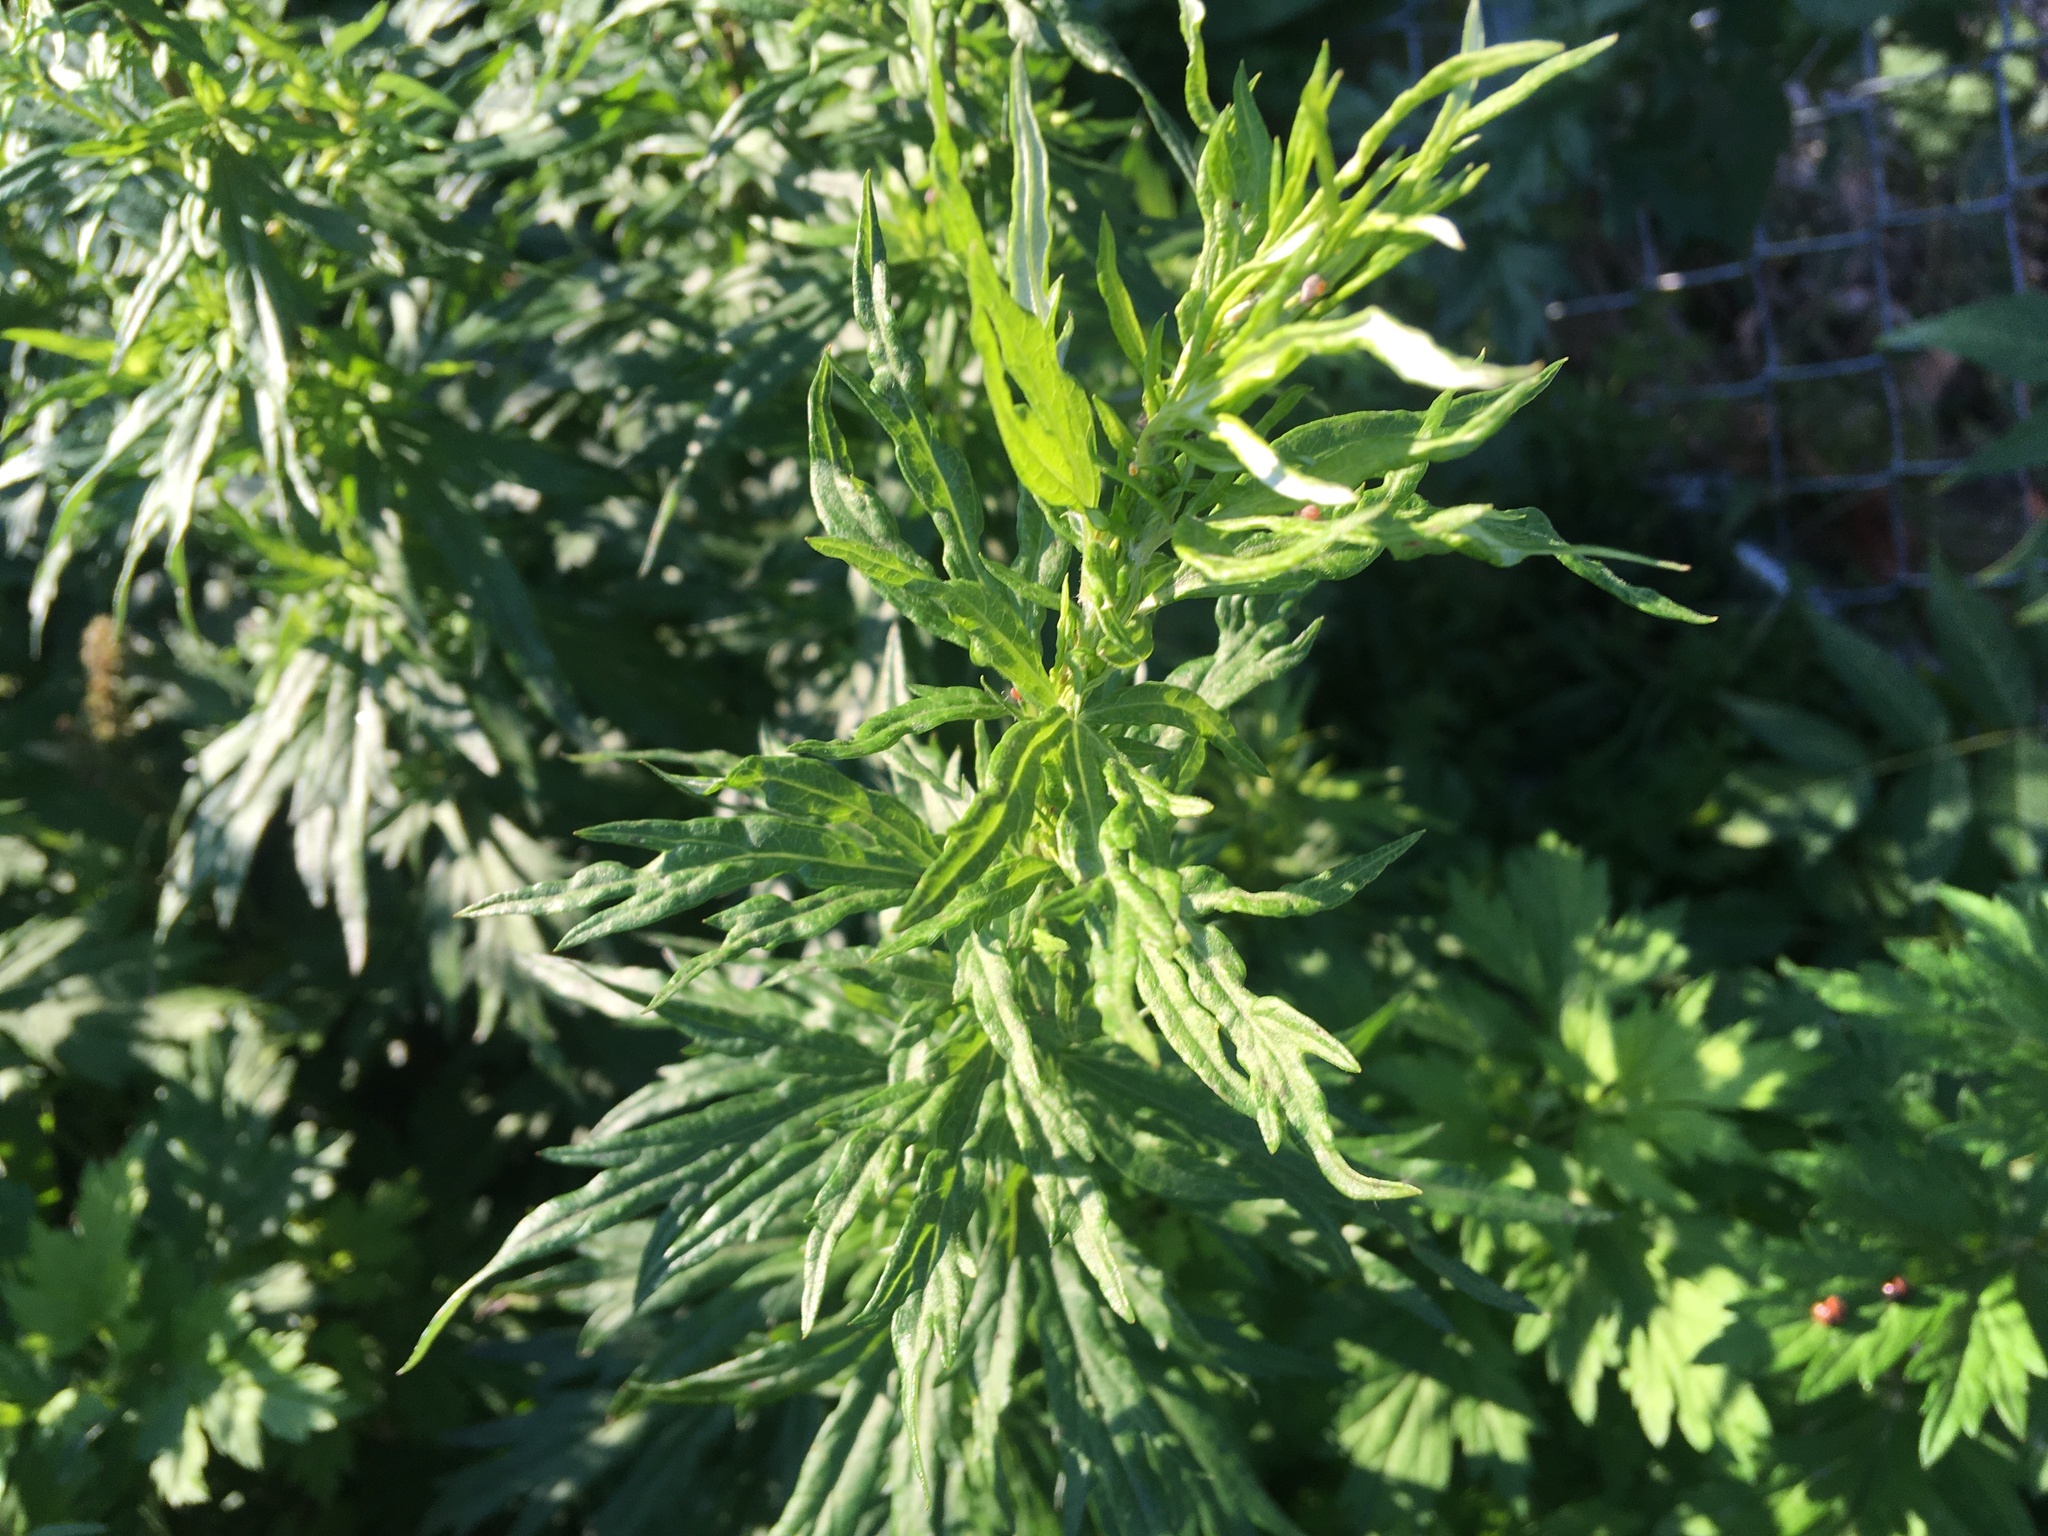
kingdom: Plantae
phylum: Tracheophyta
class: Magnoliopsida
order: Asterales
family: Asteraceae
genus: Artemisia
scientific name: Artemisia vulgaris
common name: Mugwort
